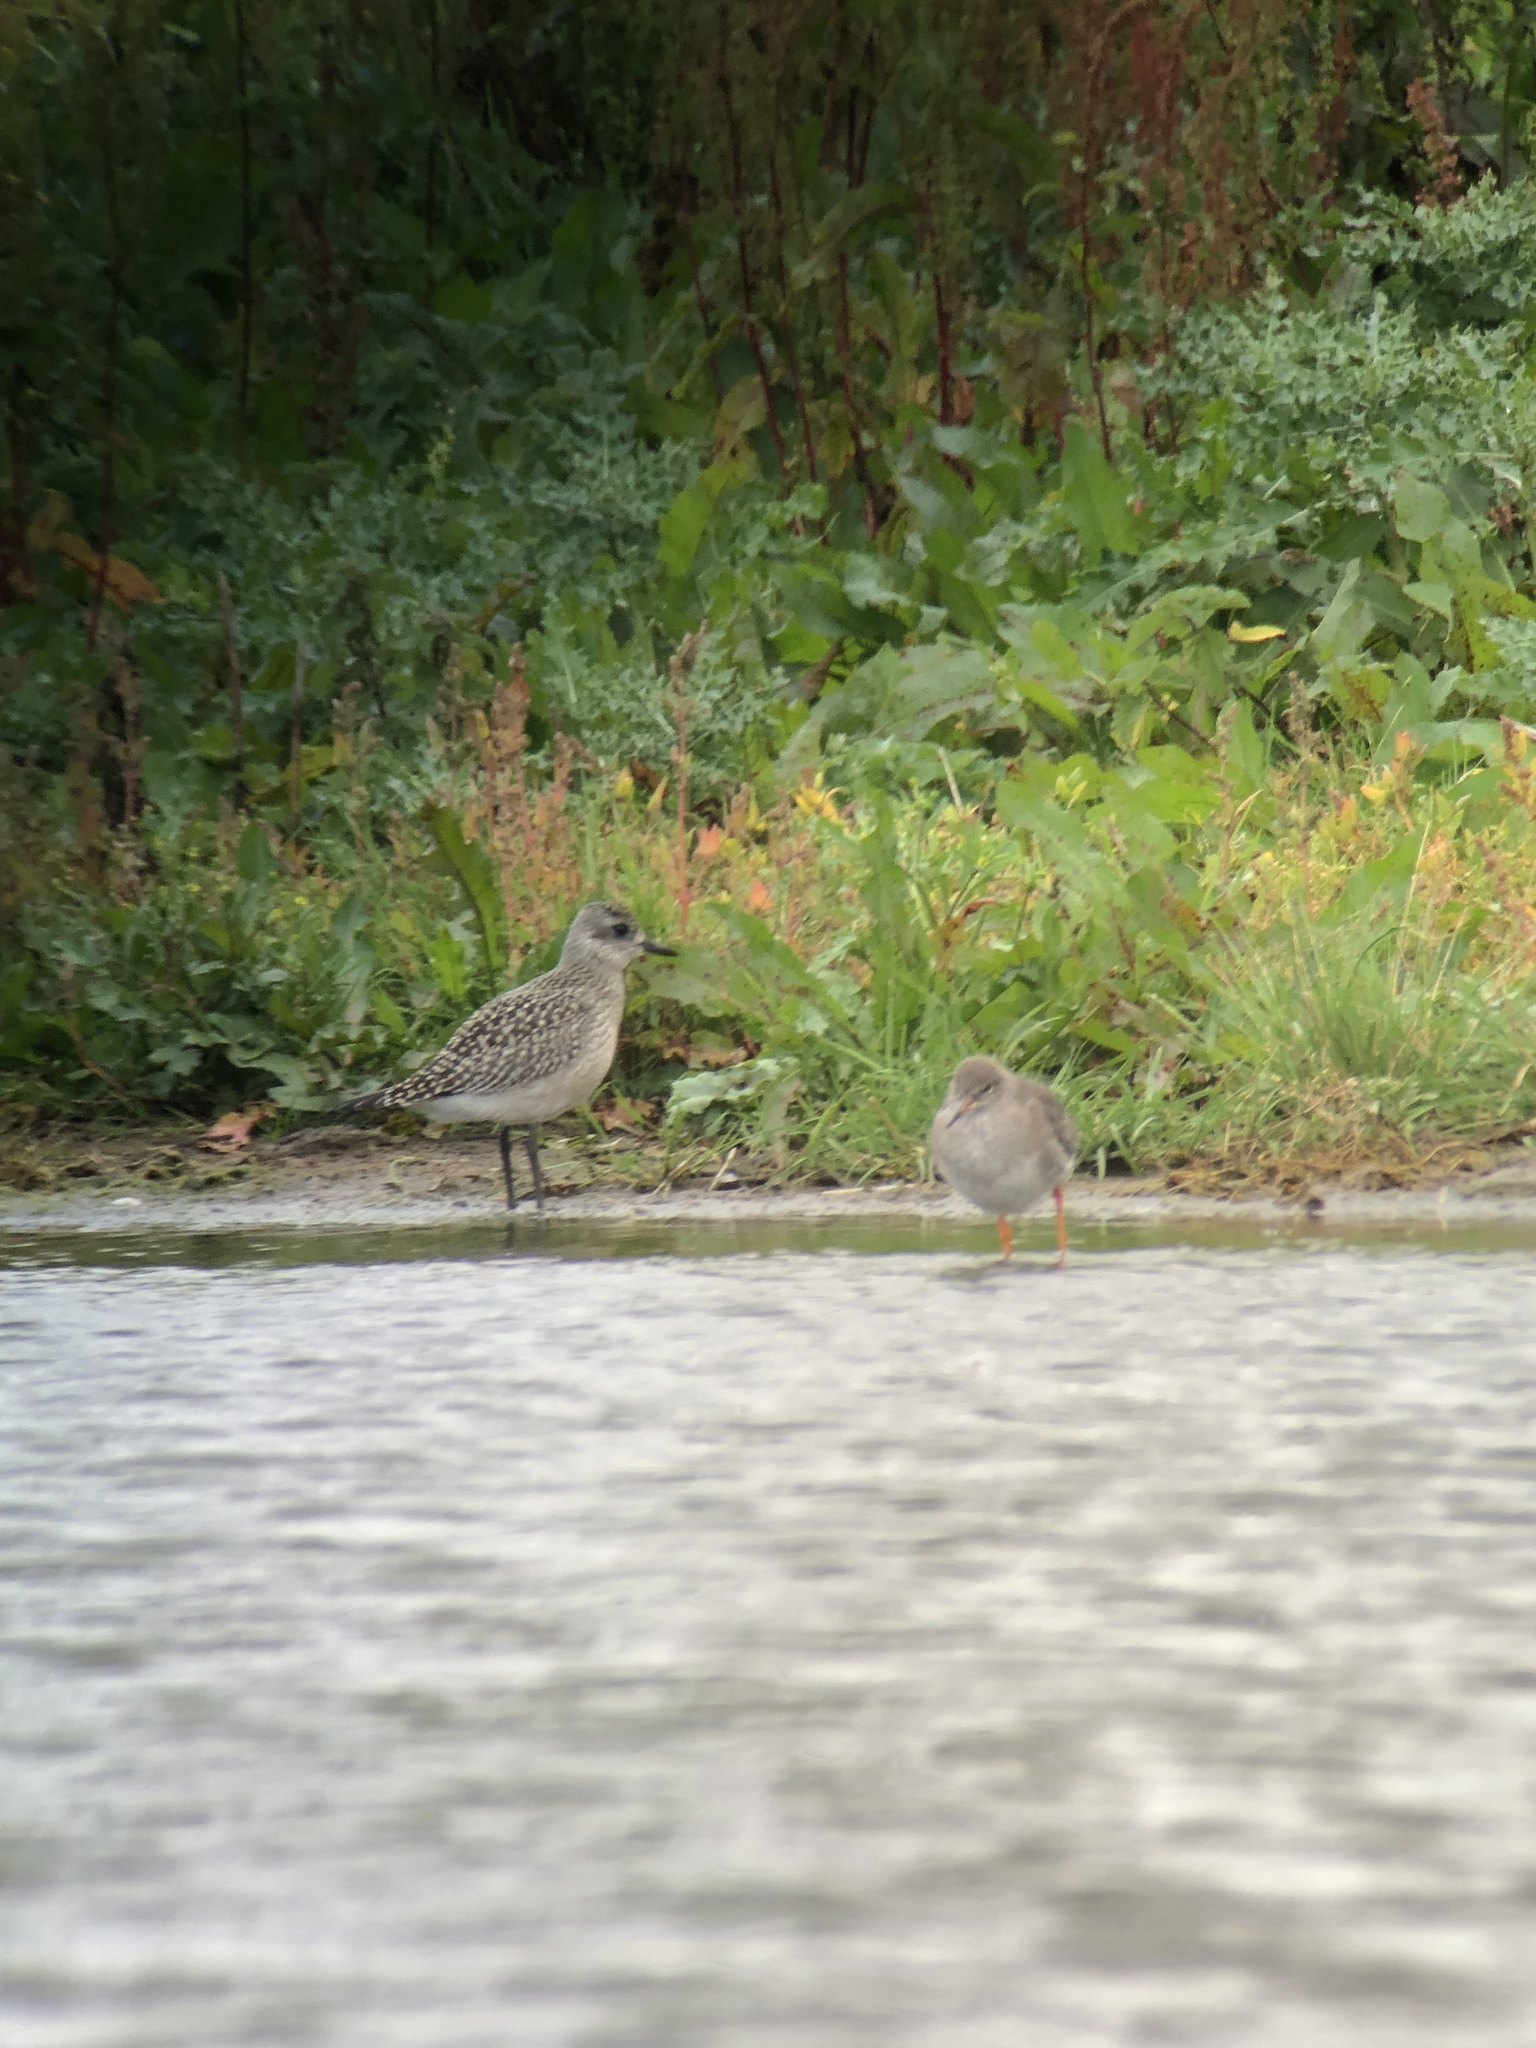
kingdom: Animalia
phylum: Chordata
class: Aves
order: Charadriiformes
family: Charadriidae
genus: Pluvialis
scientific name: Pluvialis squatarola
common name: Grey plover
